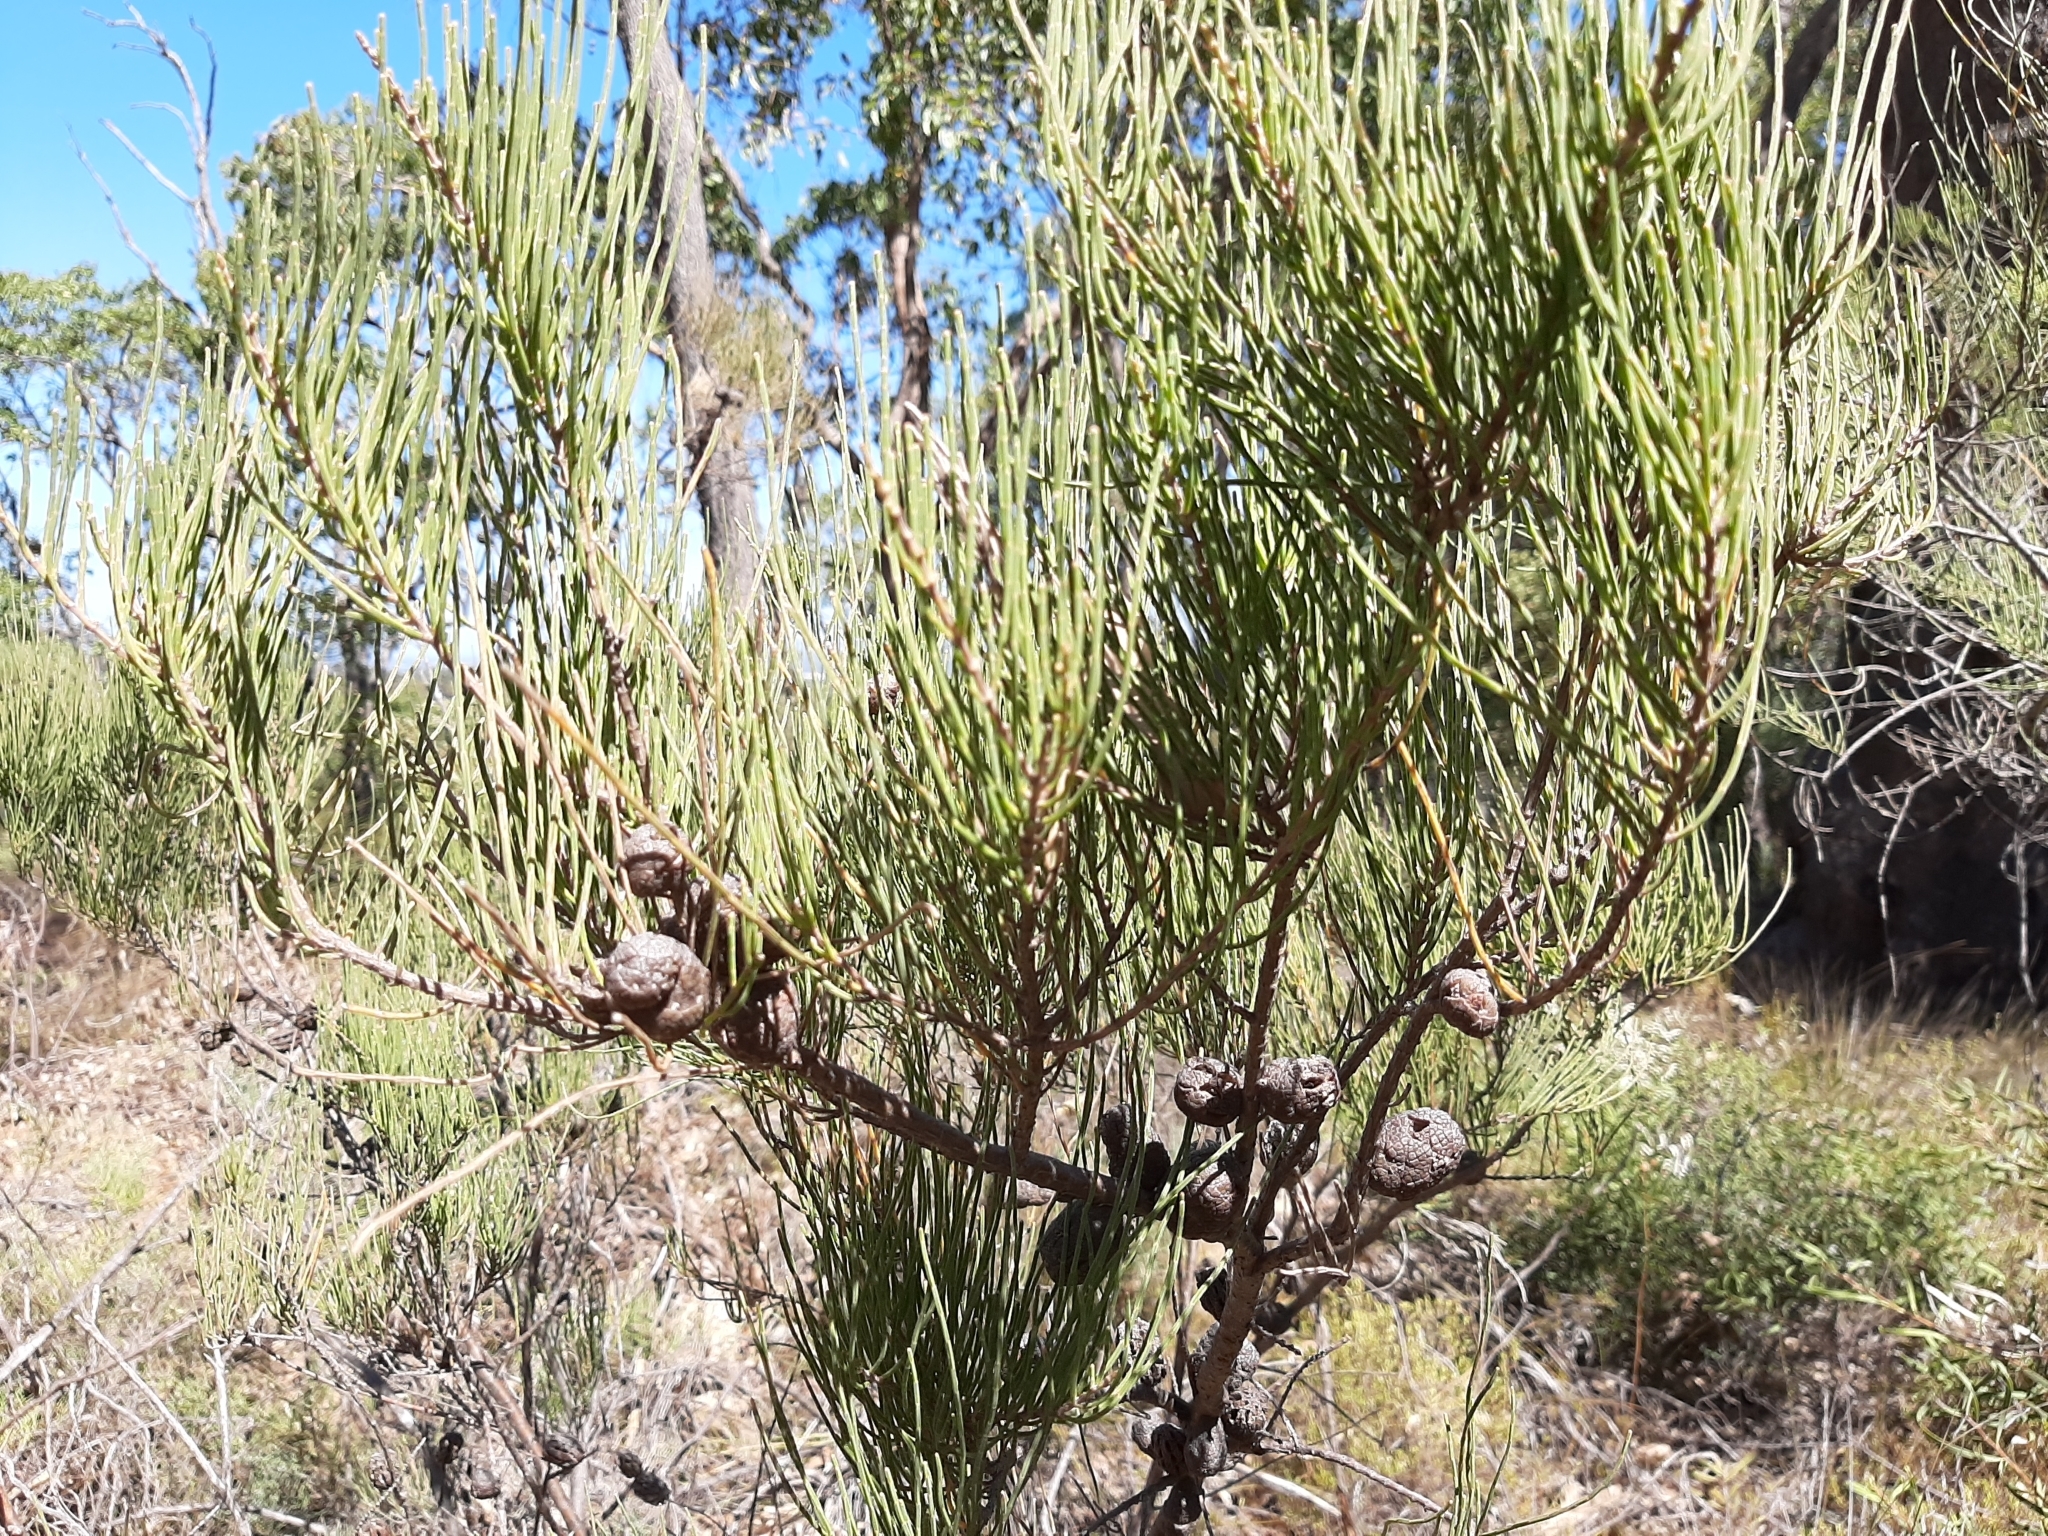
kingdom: Plantae
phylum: Tracheophyta
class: Magnoliopsida
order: Fagales
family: Casuarinaceae
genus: Allocasuarina
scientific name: Allocasuarina humilis
